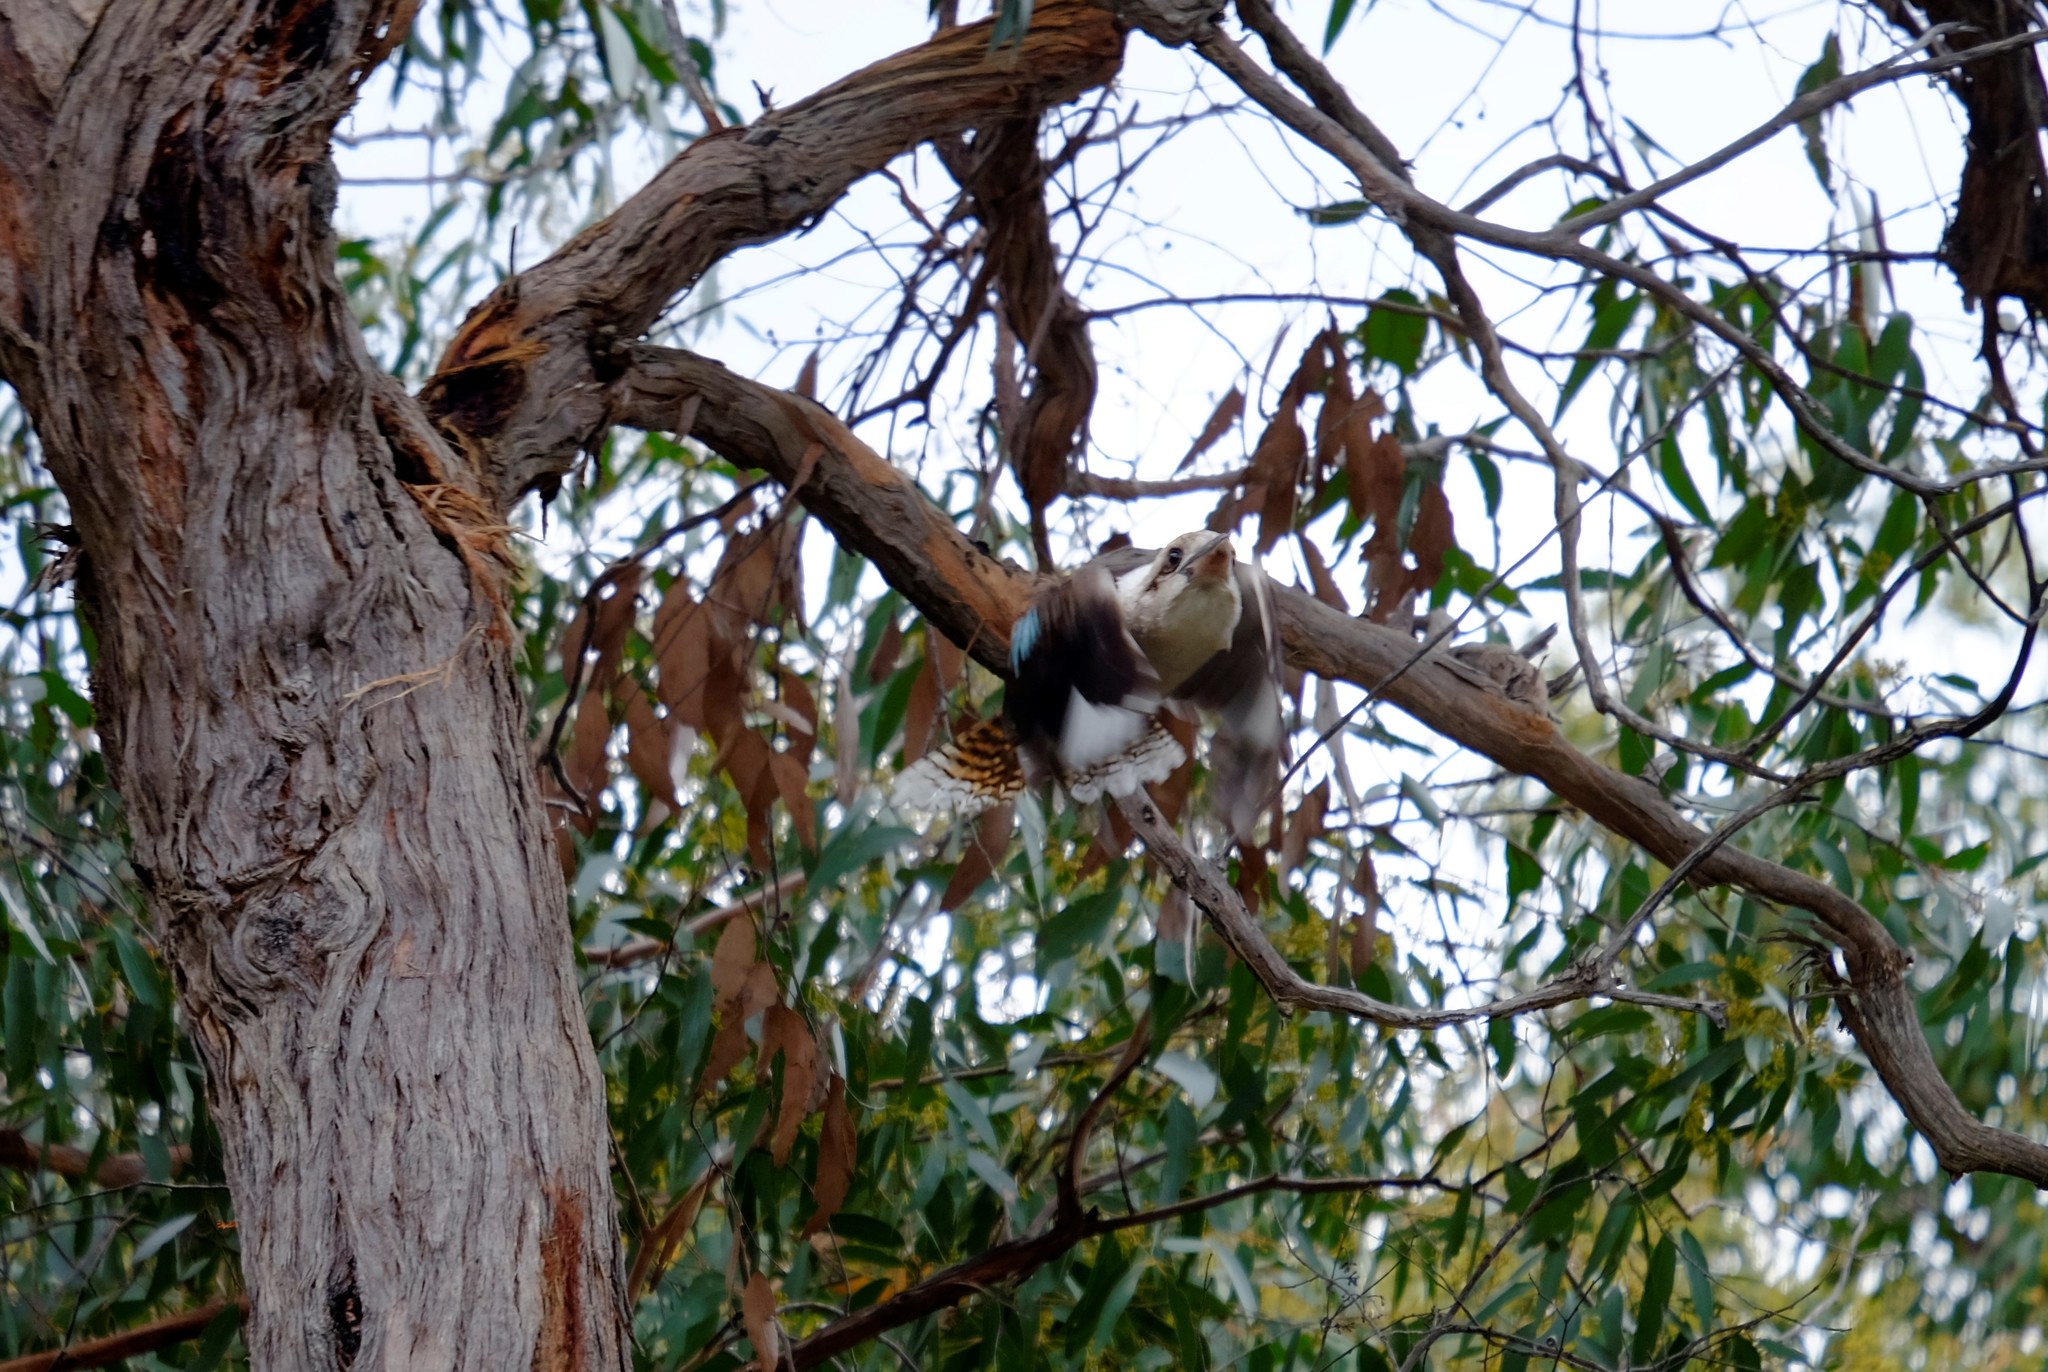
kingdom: Animalia
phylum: Chordata
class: Aves
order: Coraciiformes
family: Alcedinidae
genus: Dacelo
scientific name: Dacelo novaeguineae
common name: Laughing kookaburra
